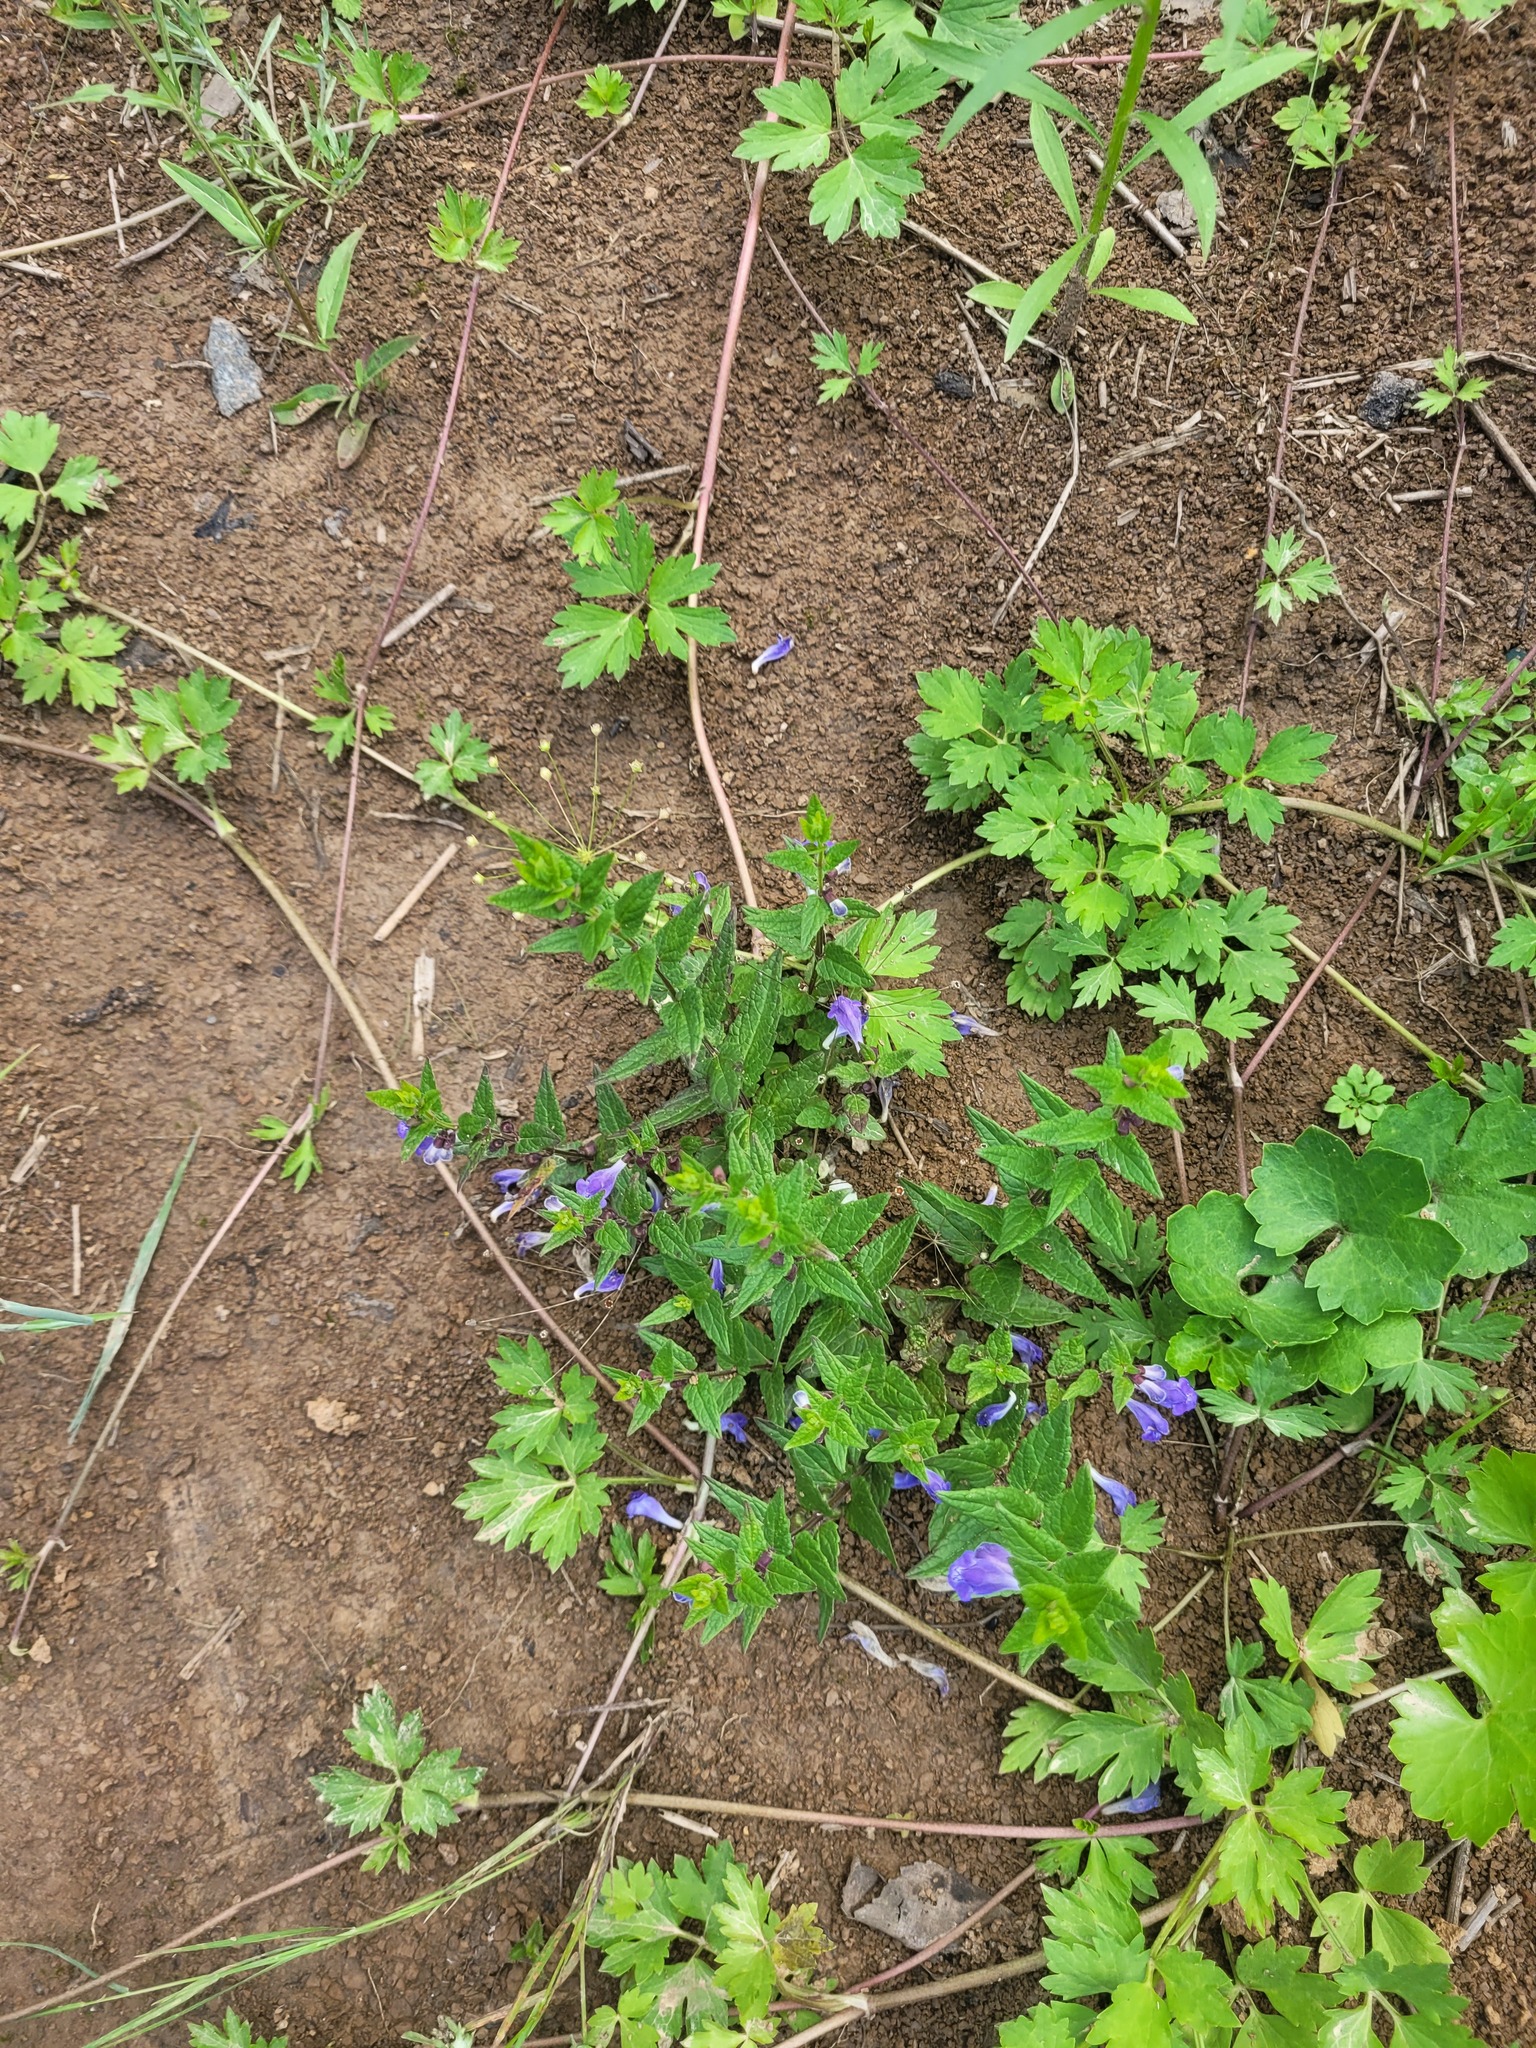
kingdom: Plantae
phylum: Tracheophyta
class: Magnoliopsida
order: Lamiales
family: Lamiaceae
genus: Scutellaria
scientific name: Scutellaria galericulata
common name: Skullcap
